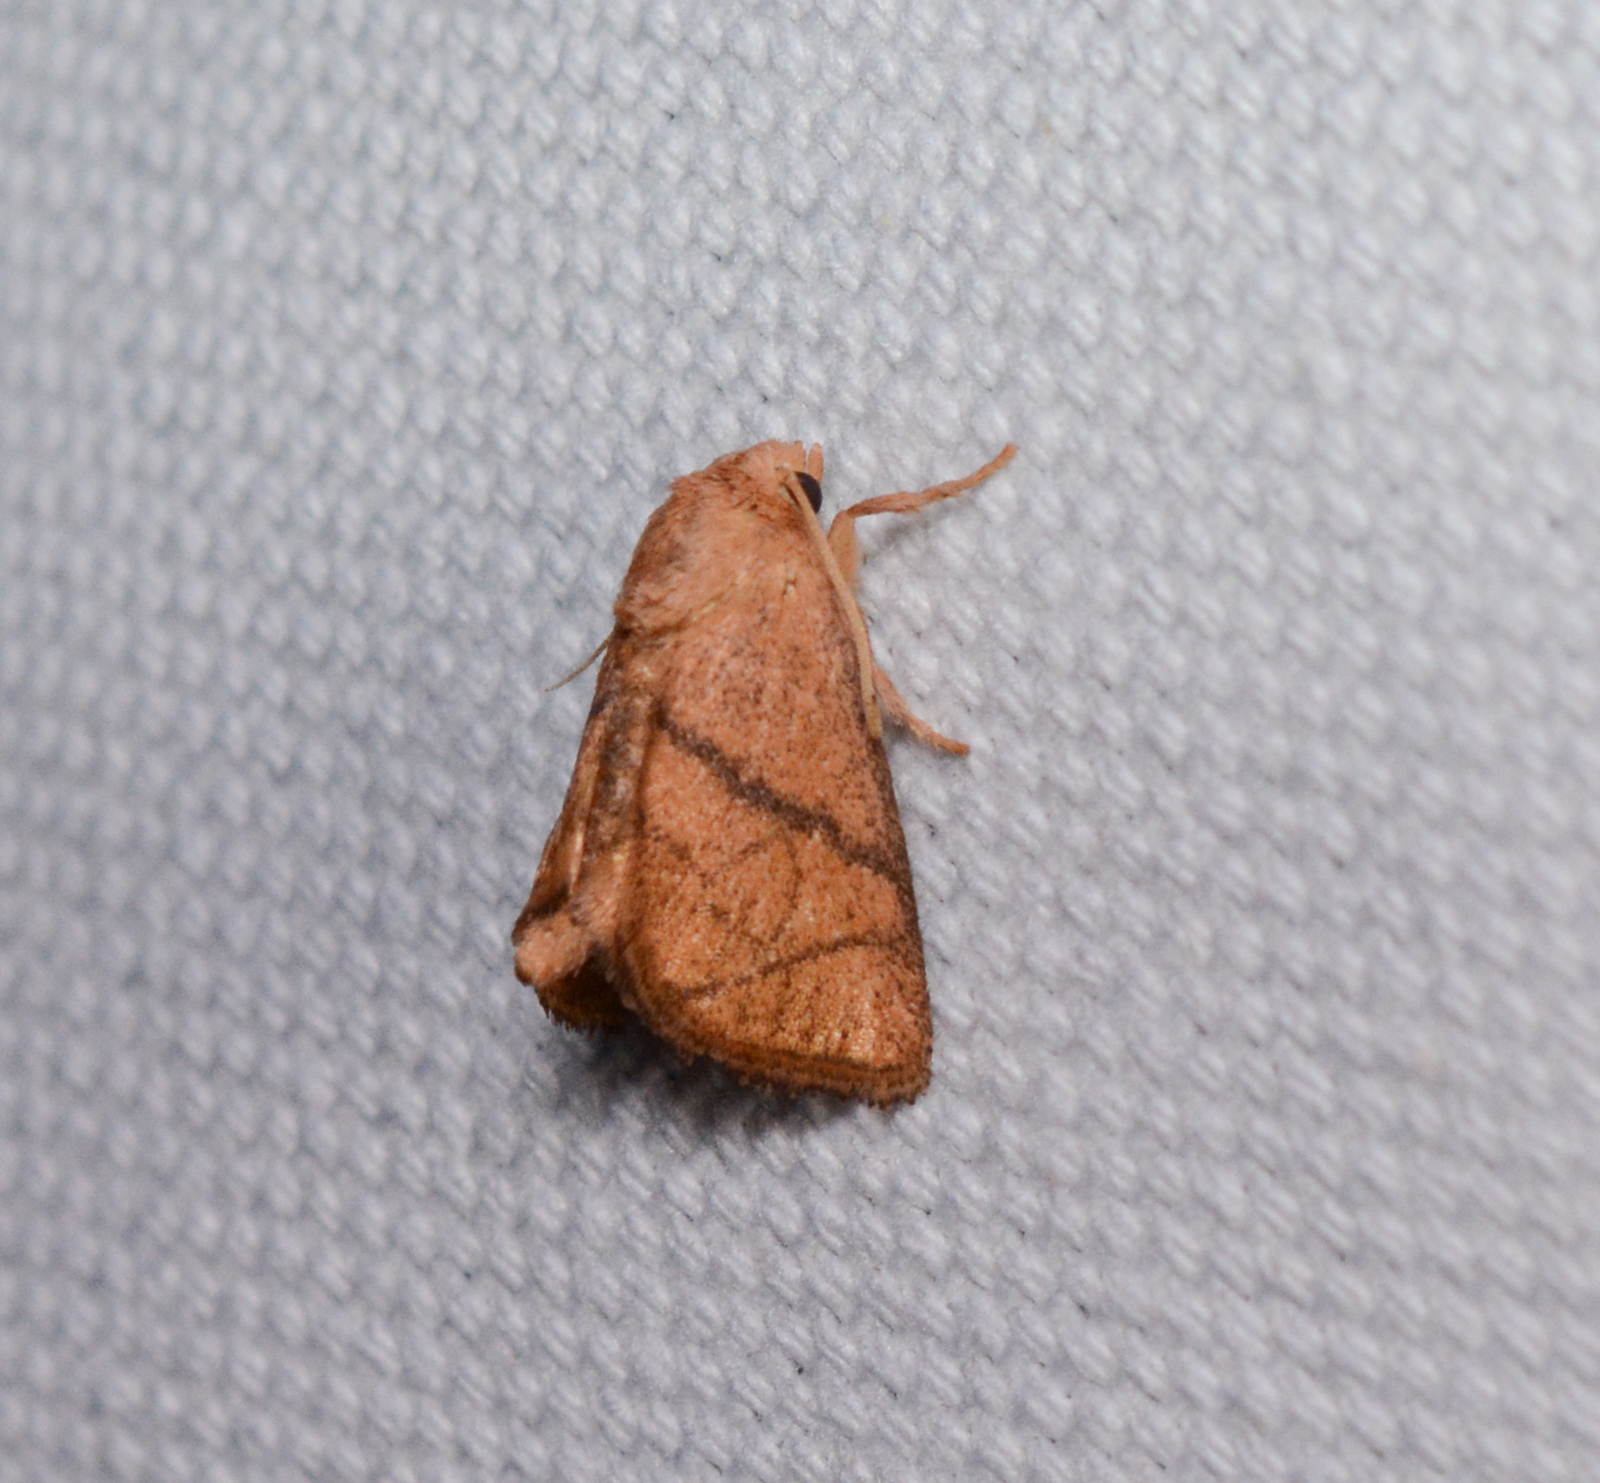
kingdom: Animalia
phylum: Arthropoda
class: Insecta
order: Lepidoptera
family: Limacodidae
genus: Apoda
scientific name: Apoda y-inversa
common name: Yellow-collared slug moth
